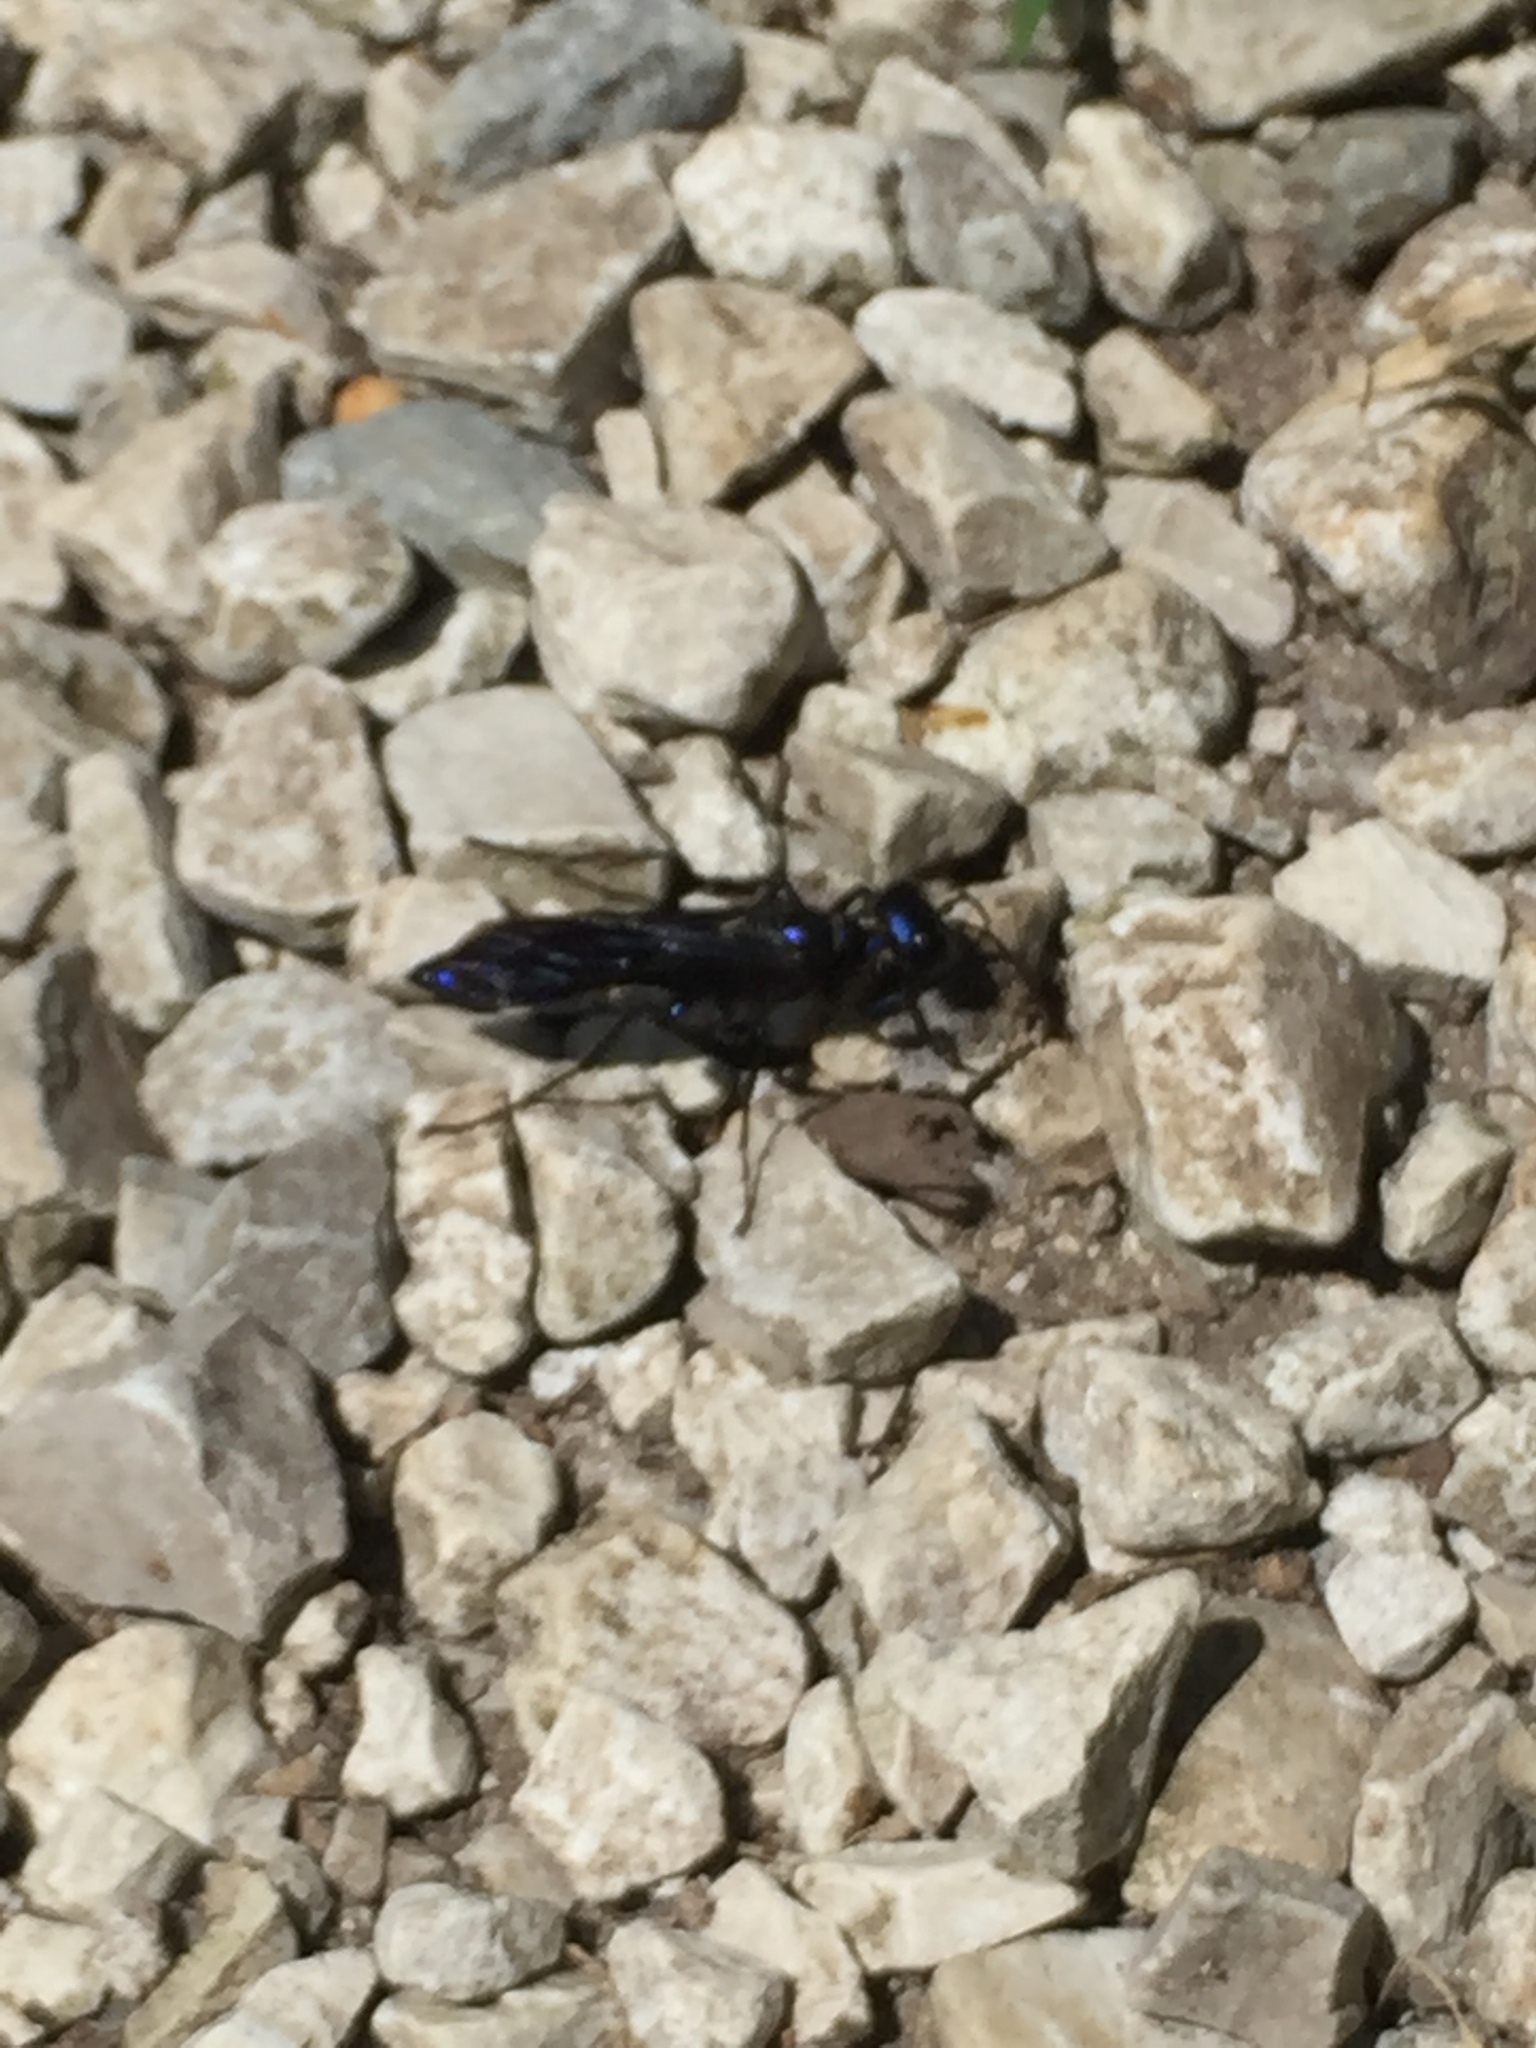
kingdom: Animalia
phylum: Arthropoda
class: Insecta
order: Hymenoptera
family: Sphecidae
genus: Chlorion
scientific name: Chlorion aerarium
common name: Steel-blue cricket hunter
